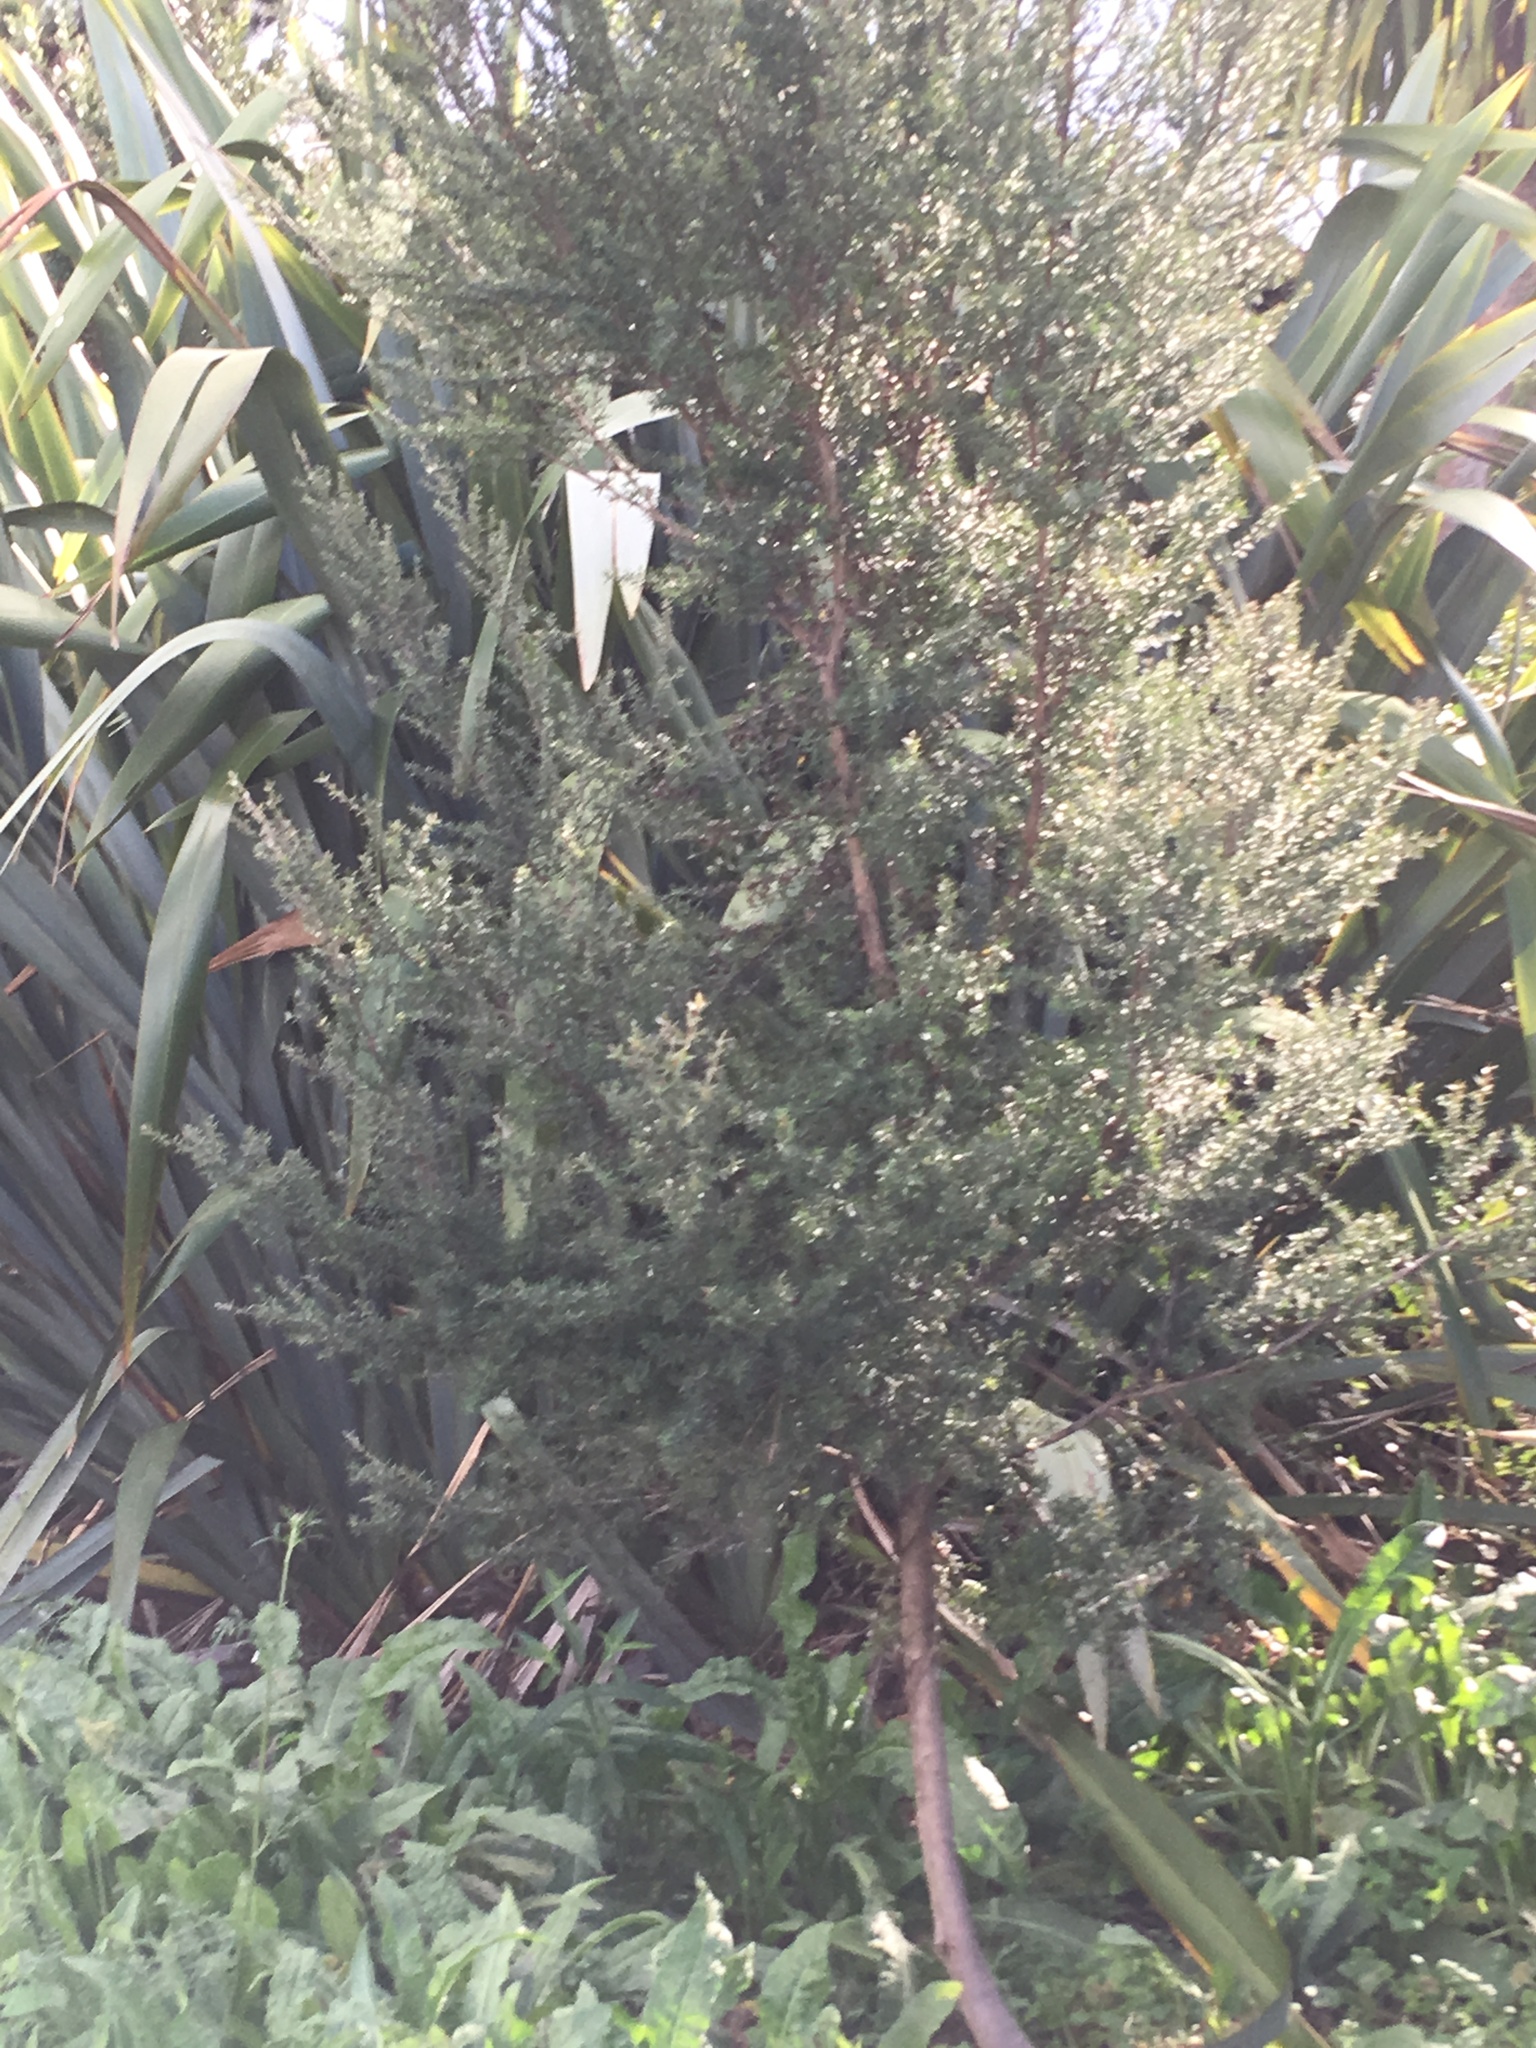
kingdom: Plantae
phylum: Tracheophyta
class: Magnoliopsida
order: Myrtales
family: Myrtaceae
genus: Leptospermum
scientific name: Leptospermum scoparium
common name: Broom tea-tree
